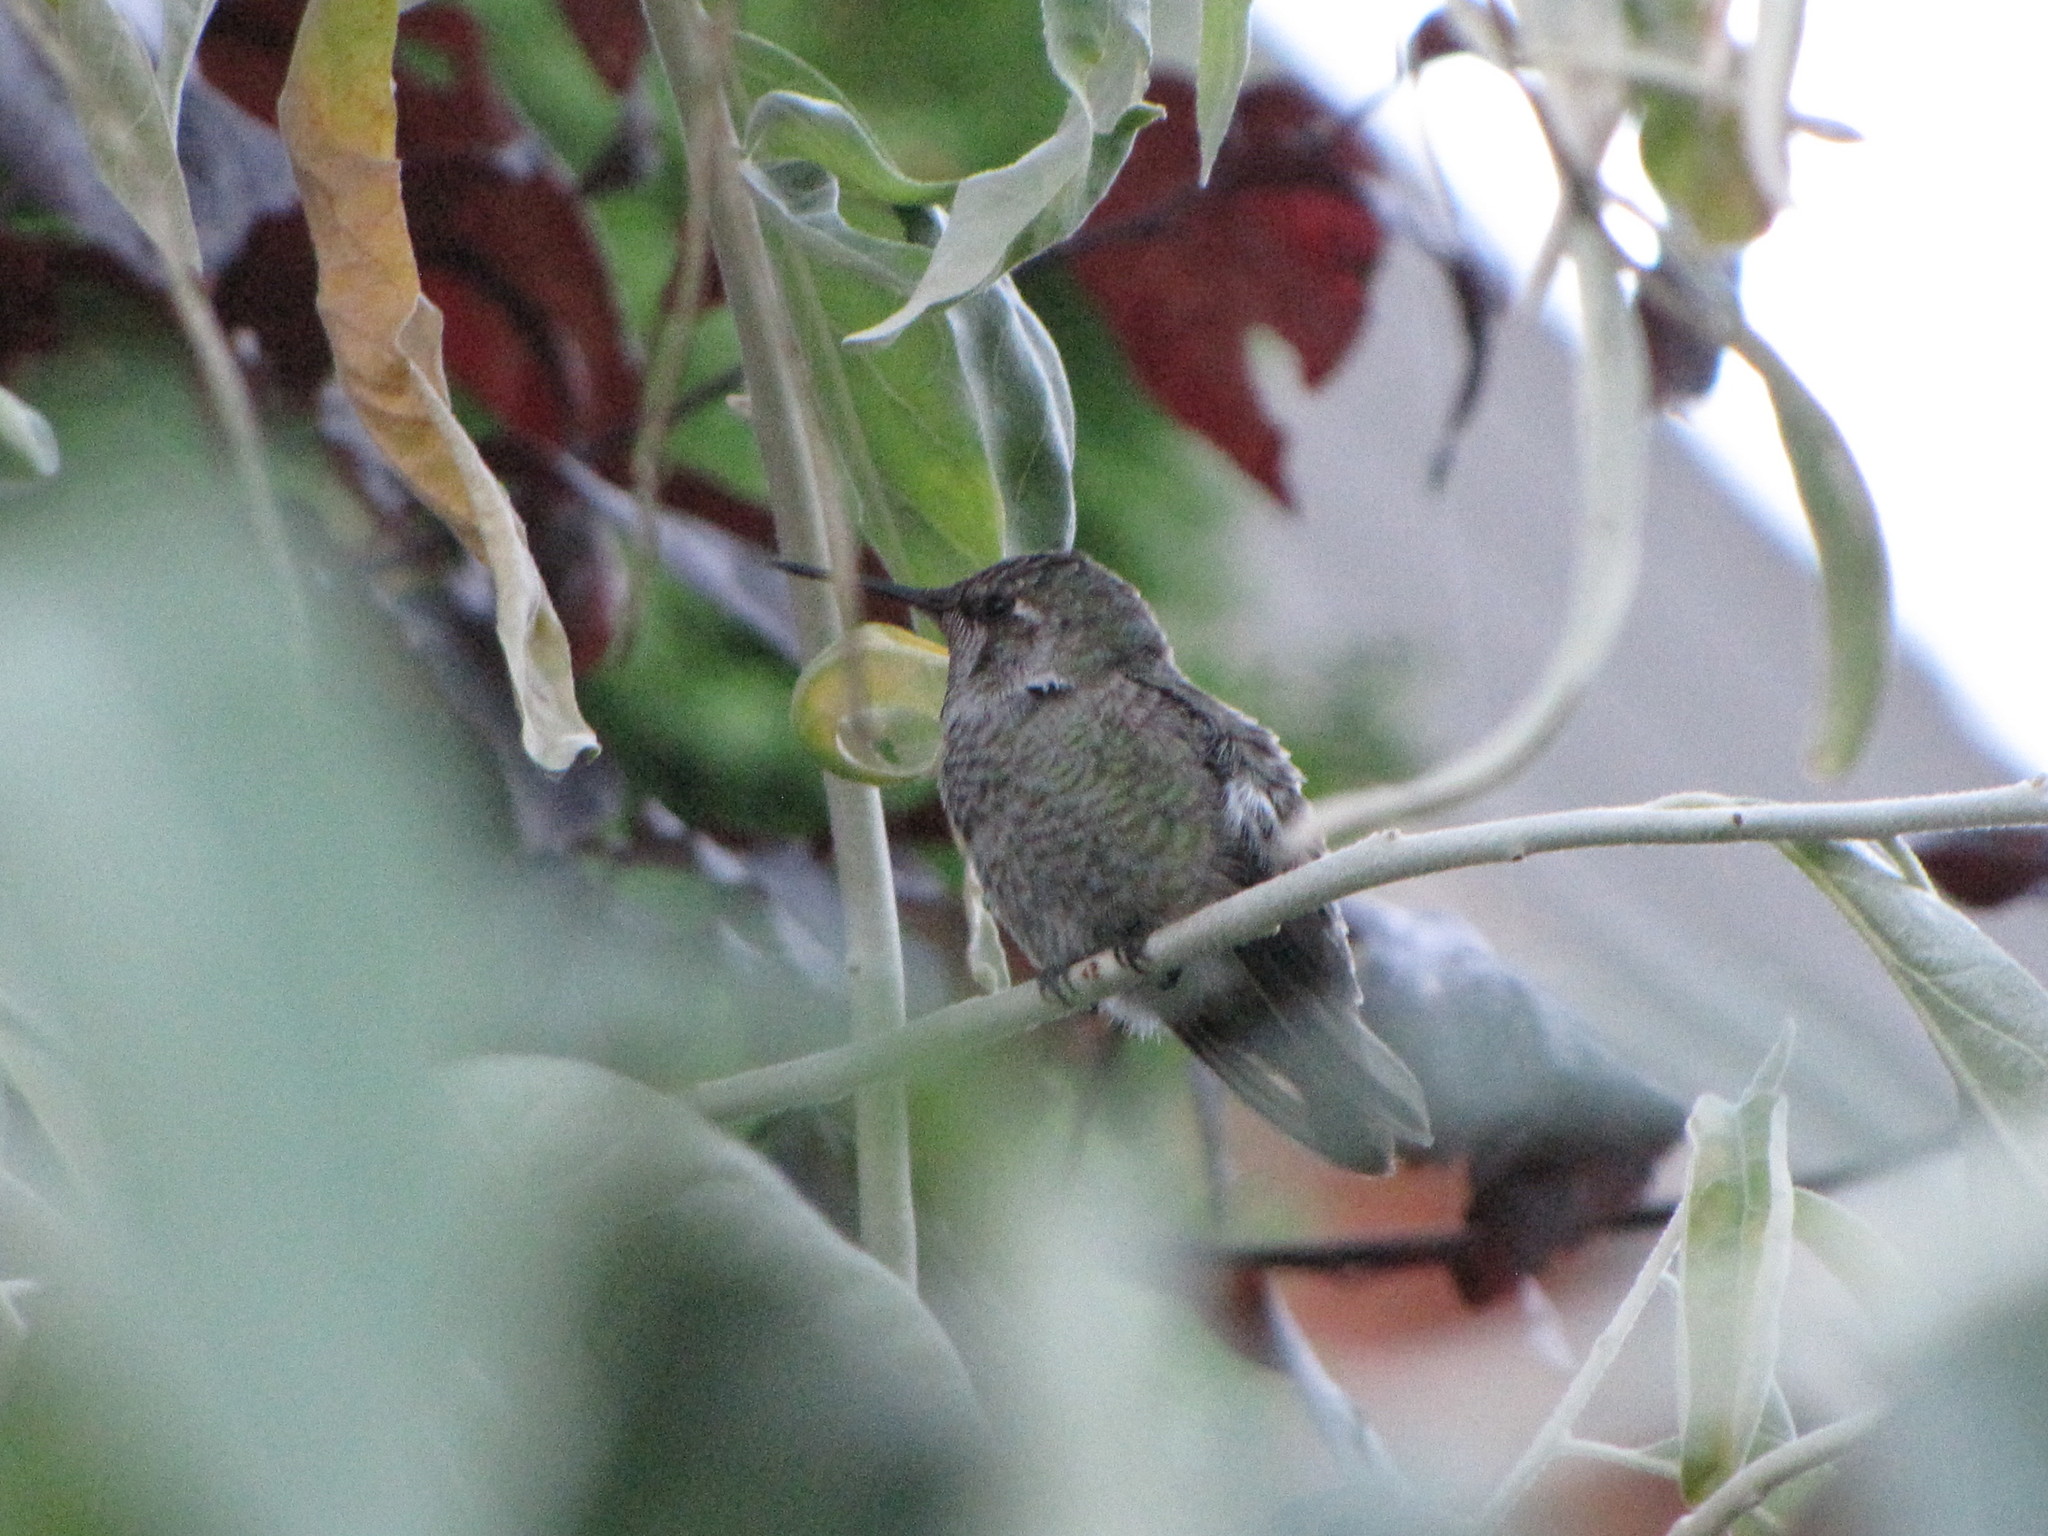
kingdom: Animalia
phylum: Chordata
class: Aves
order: Apodiformes
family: Trochilidae
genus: Calypte
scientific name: Calypte anna
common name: Anna's hummingbird
